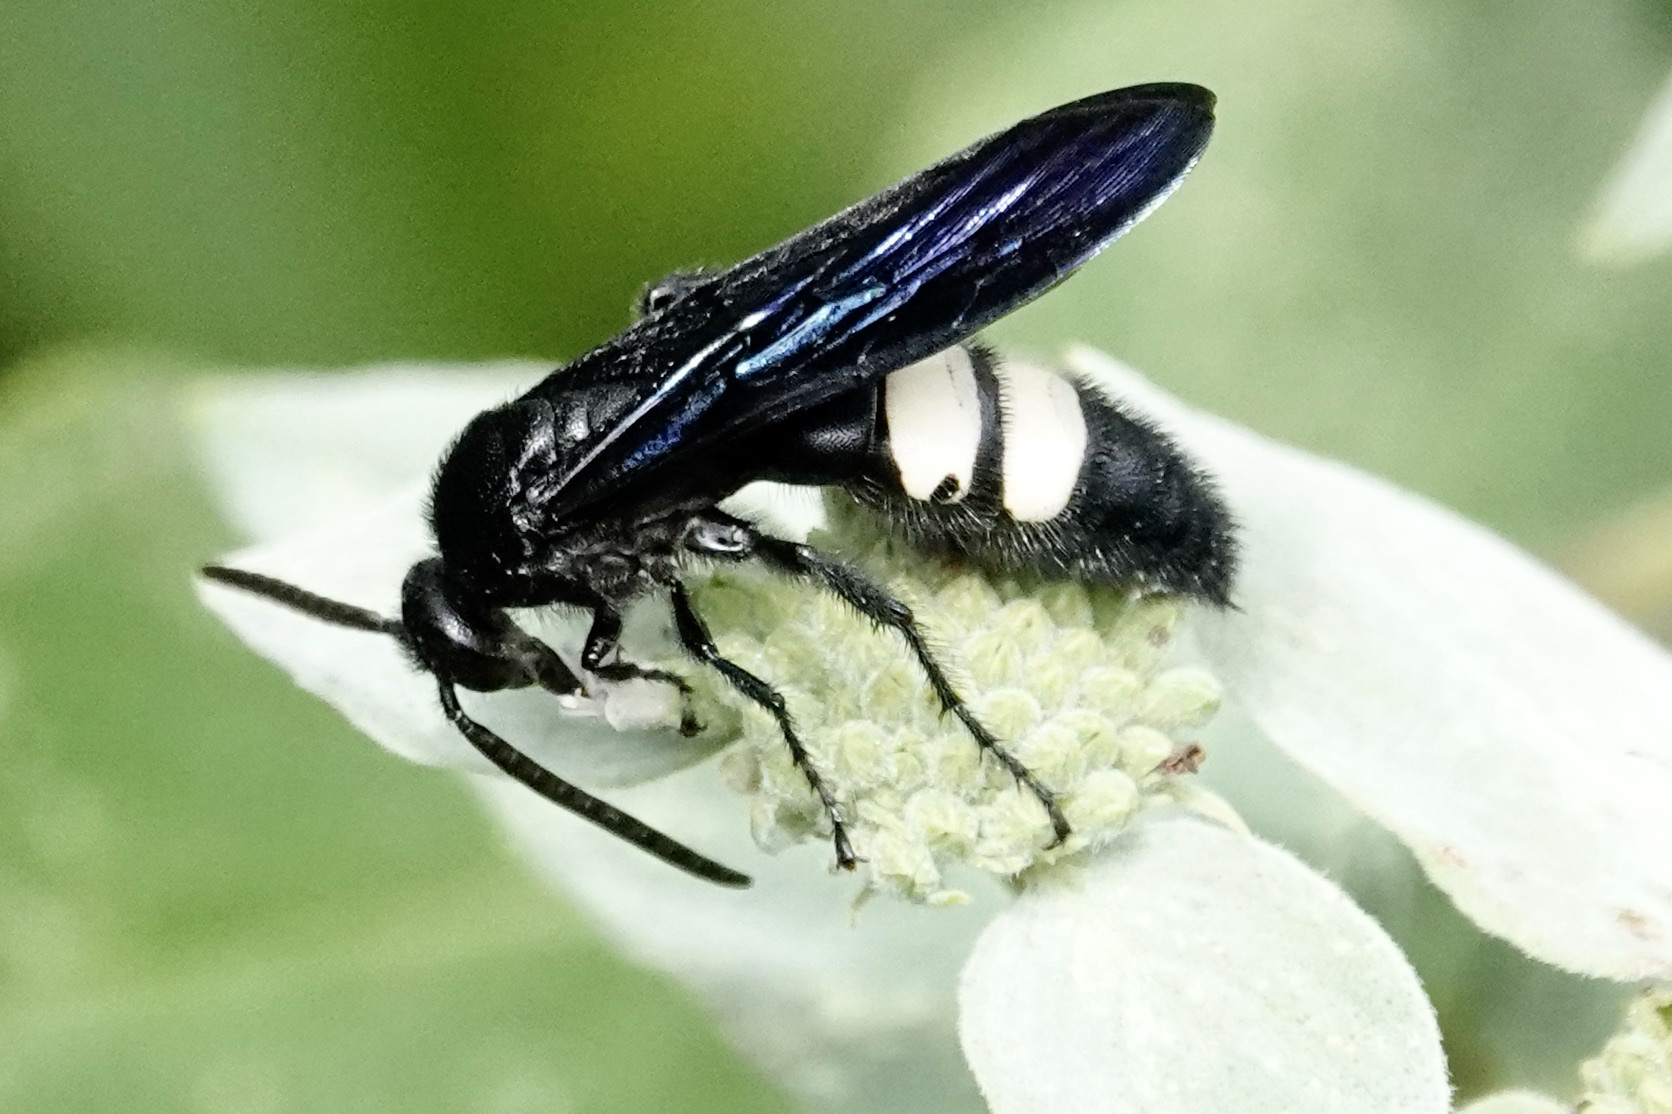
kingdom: Animalia
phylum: Arthropoda
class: Insecta
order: Hymenoptera
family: Scoliidae
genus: Scolia
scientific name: Scolia bicincta
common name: Double-banded scoliid wasp
